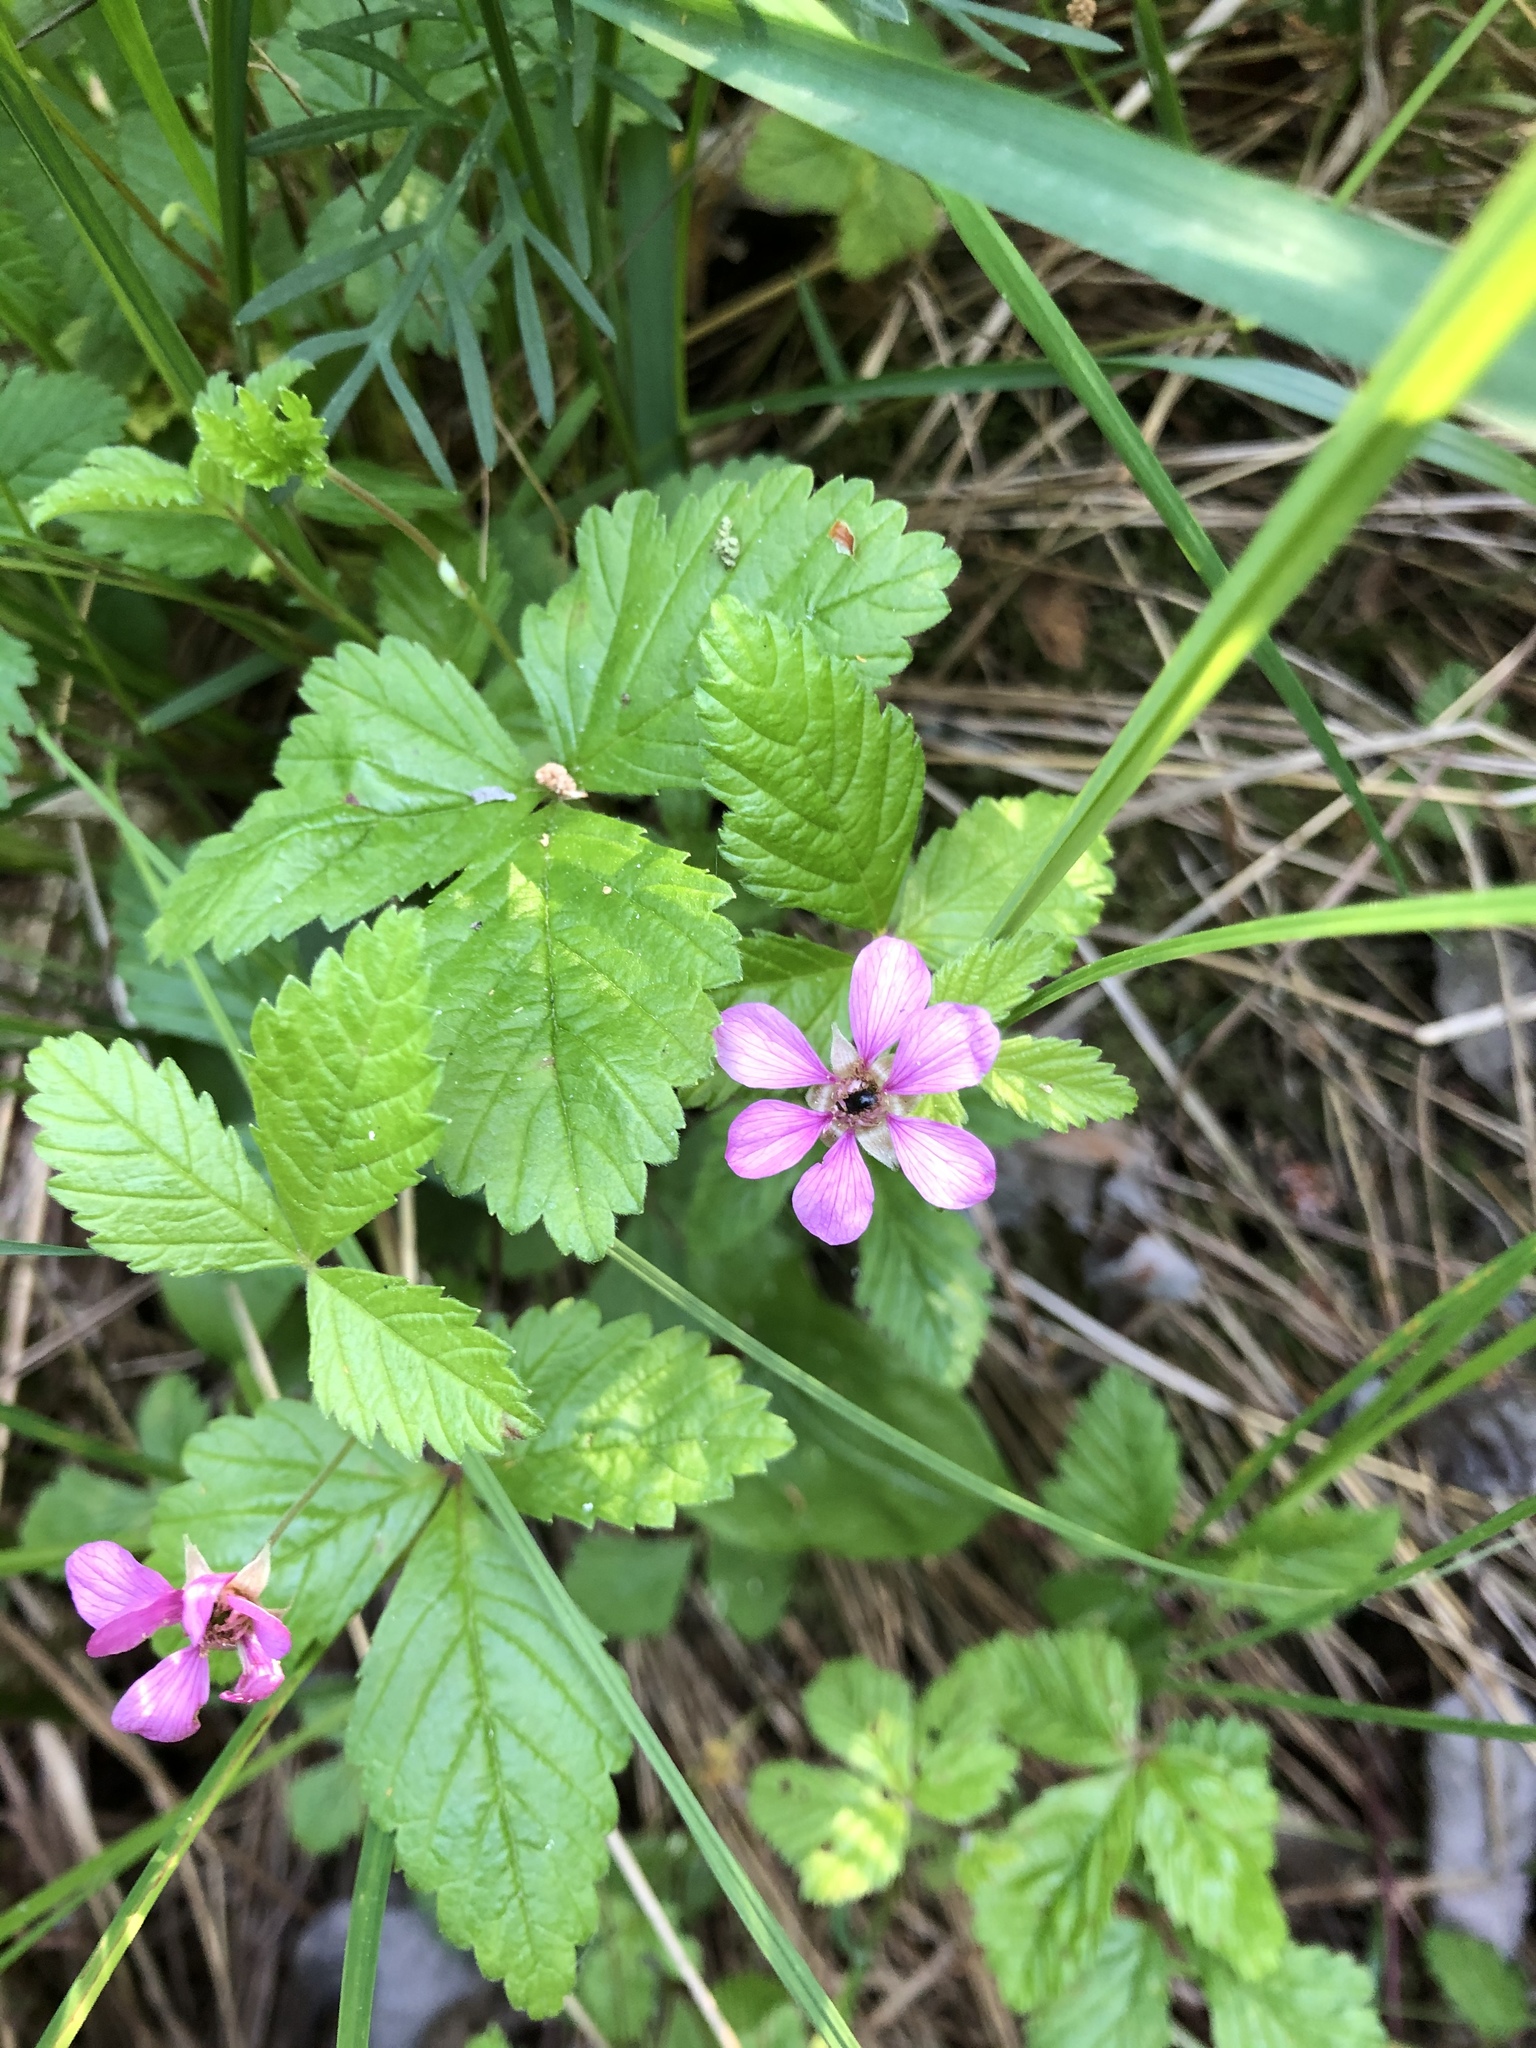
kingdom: Plantae
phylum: Tracheophyta
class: Magnoliopsida
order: Rosales
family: Rosaceae
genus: Rubus
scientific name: Rubus arcticus
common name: Arctic bramble
